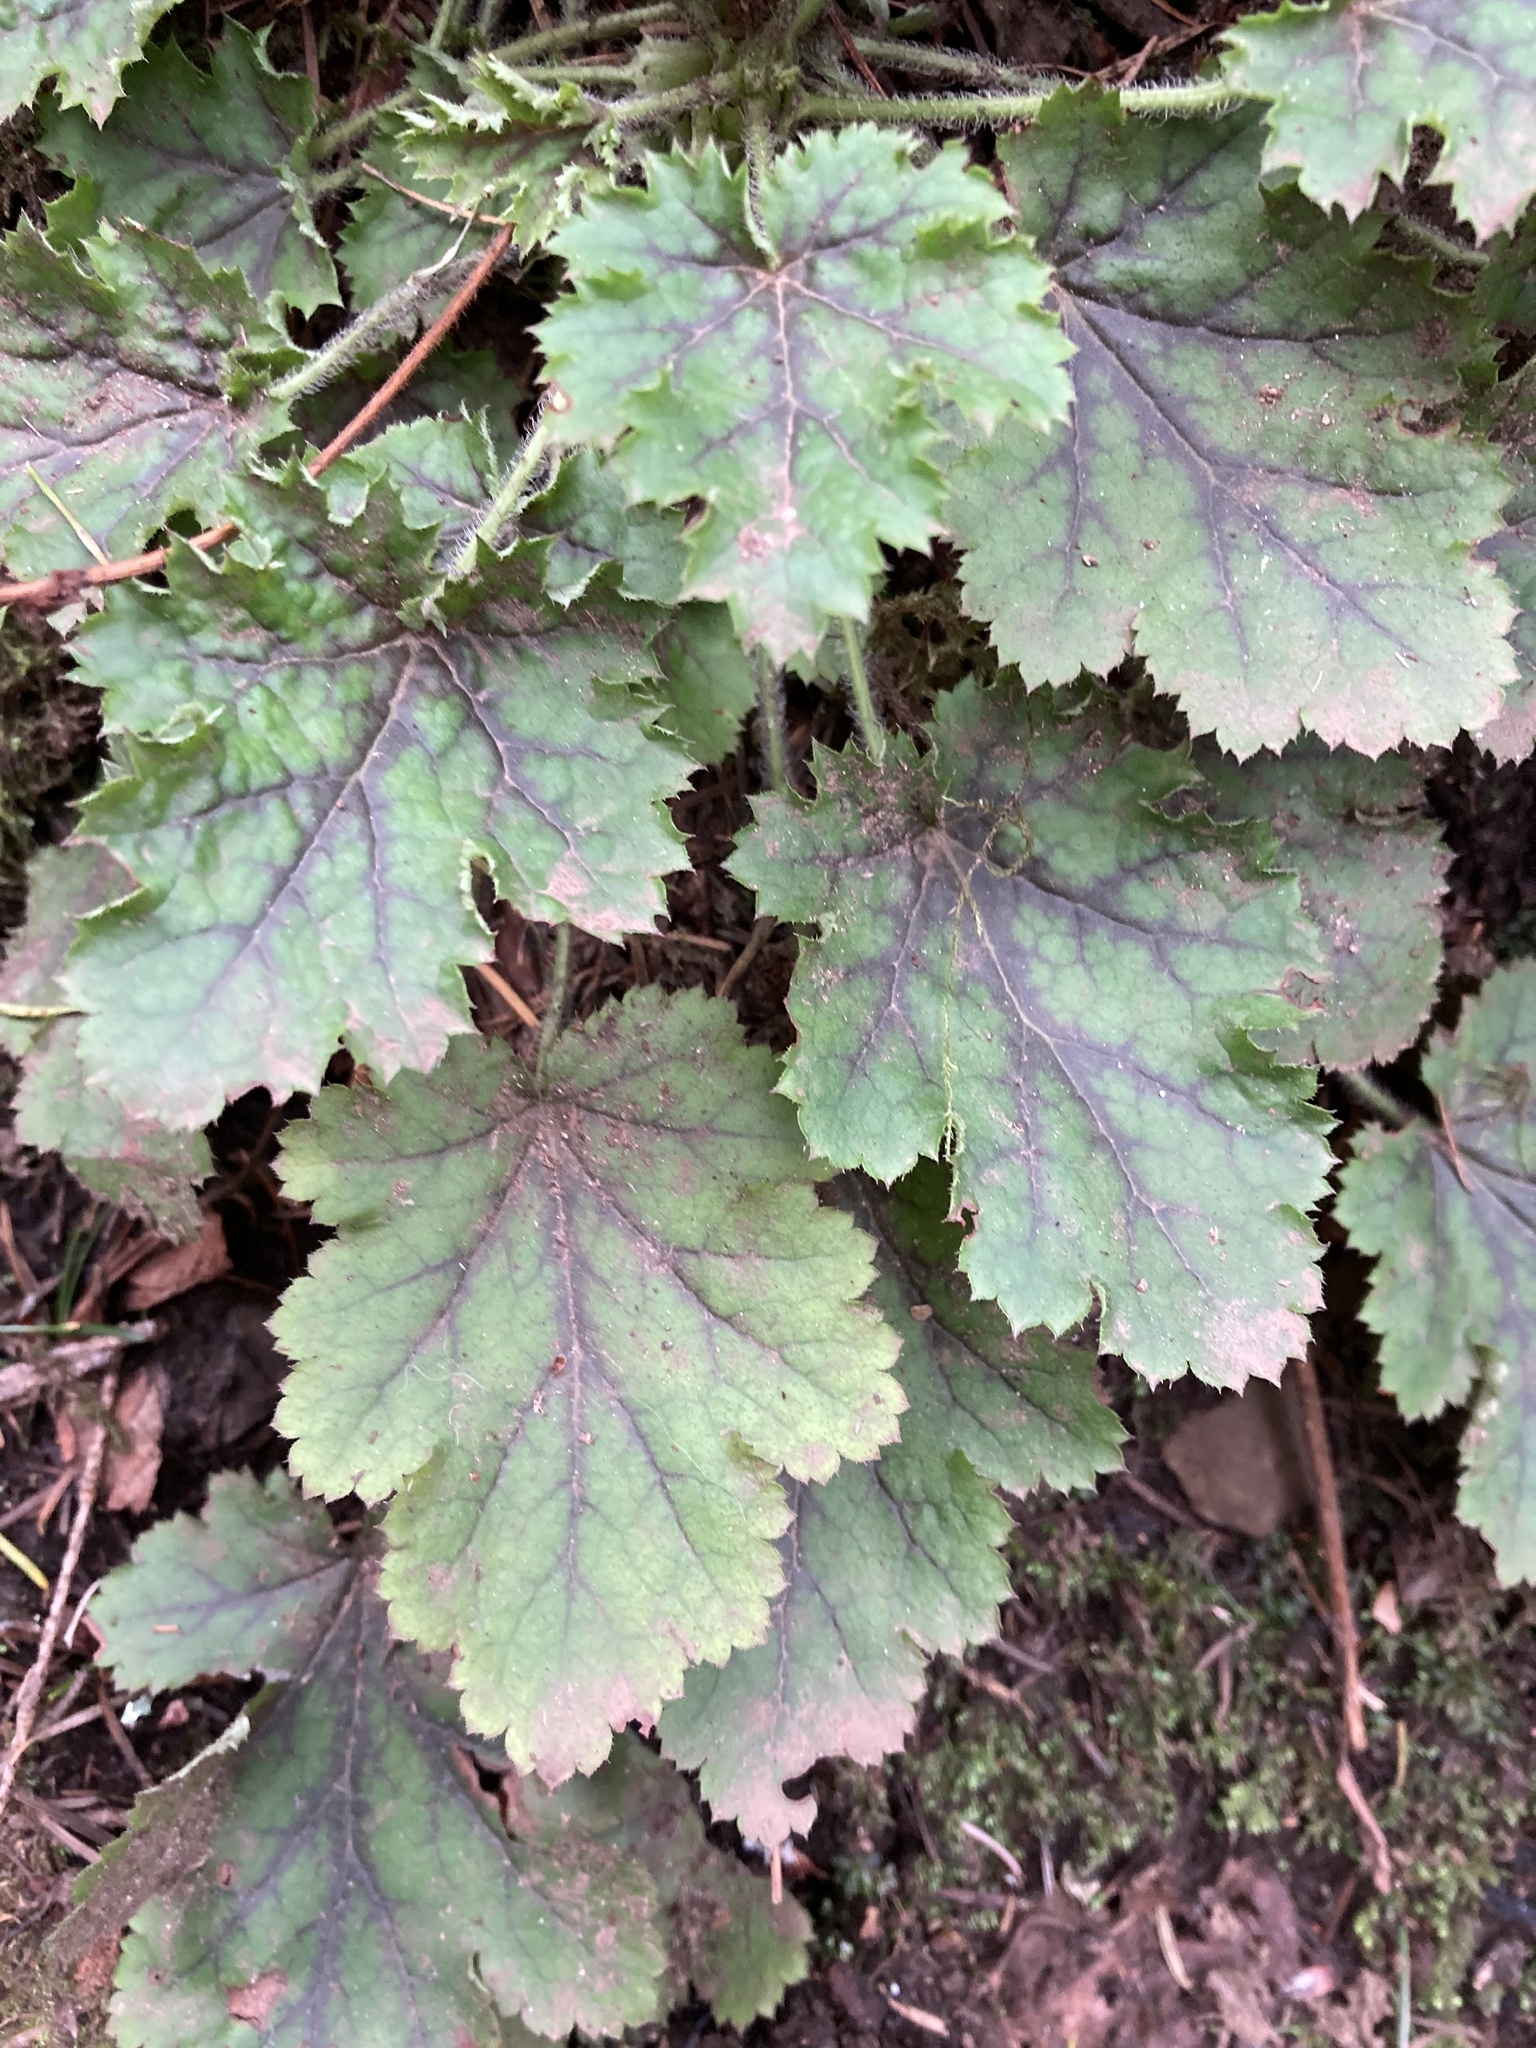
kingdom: Plantae
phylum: Tracheophyta
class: Magnoliopsida
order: Saxifragales
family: Saxifragaceae
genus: Heuchera
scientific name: Heuchera micrantha
